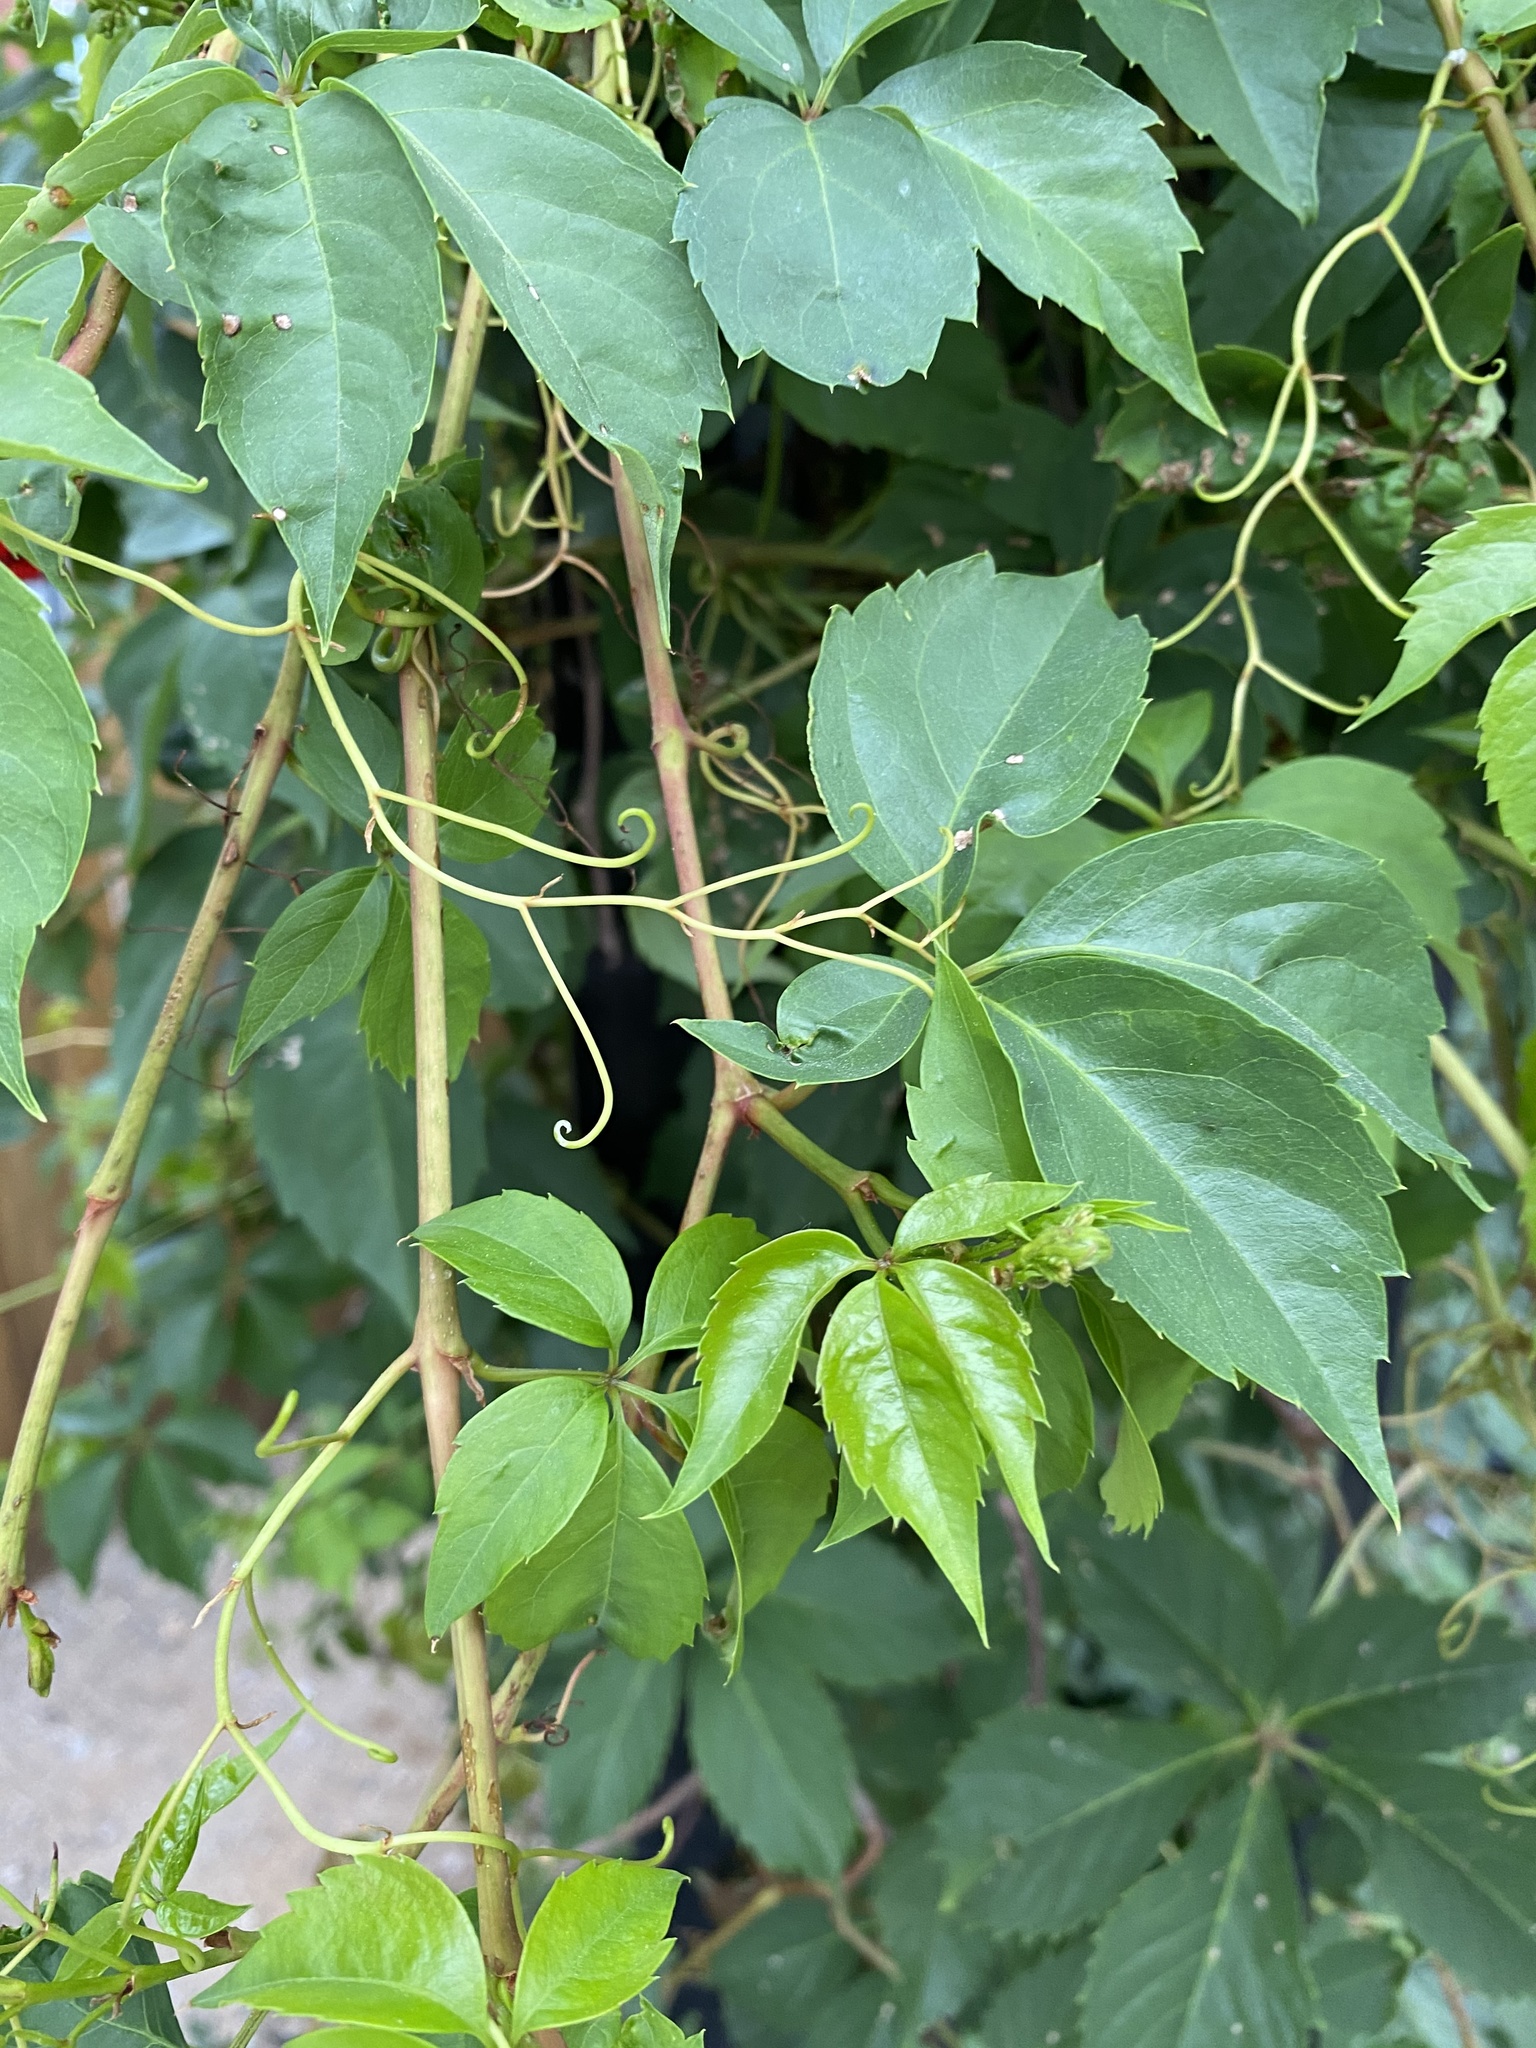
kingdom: Plantae
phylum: Tracheophyta
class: Magnoliopsida
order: Vitales
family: Vitaceae
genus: Parthenocissus
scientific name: Parthenocissus quinquefolia
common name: Virginia-creeper
